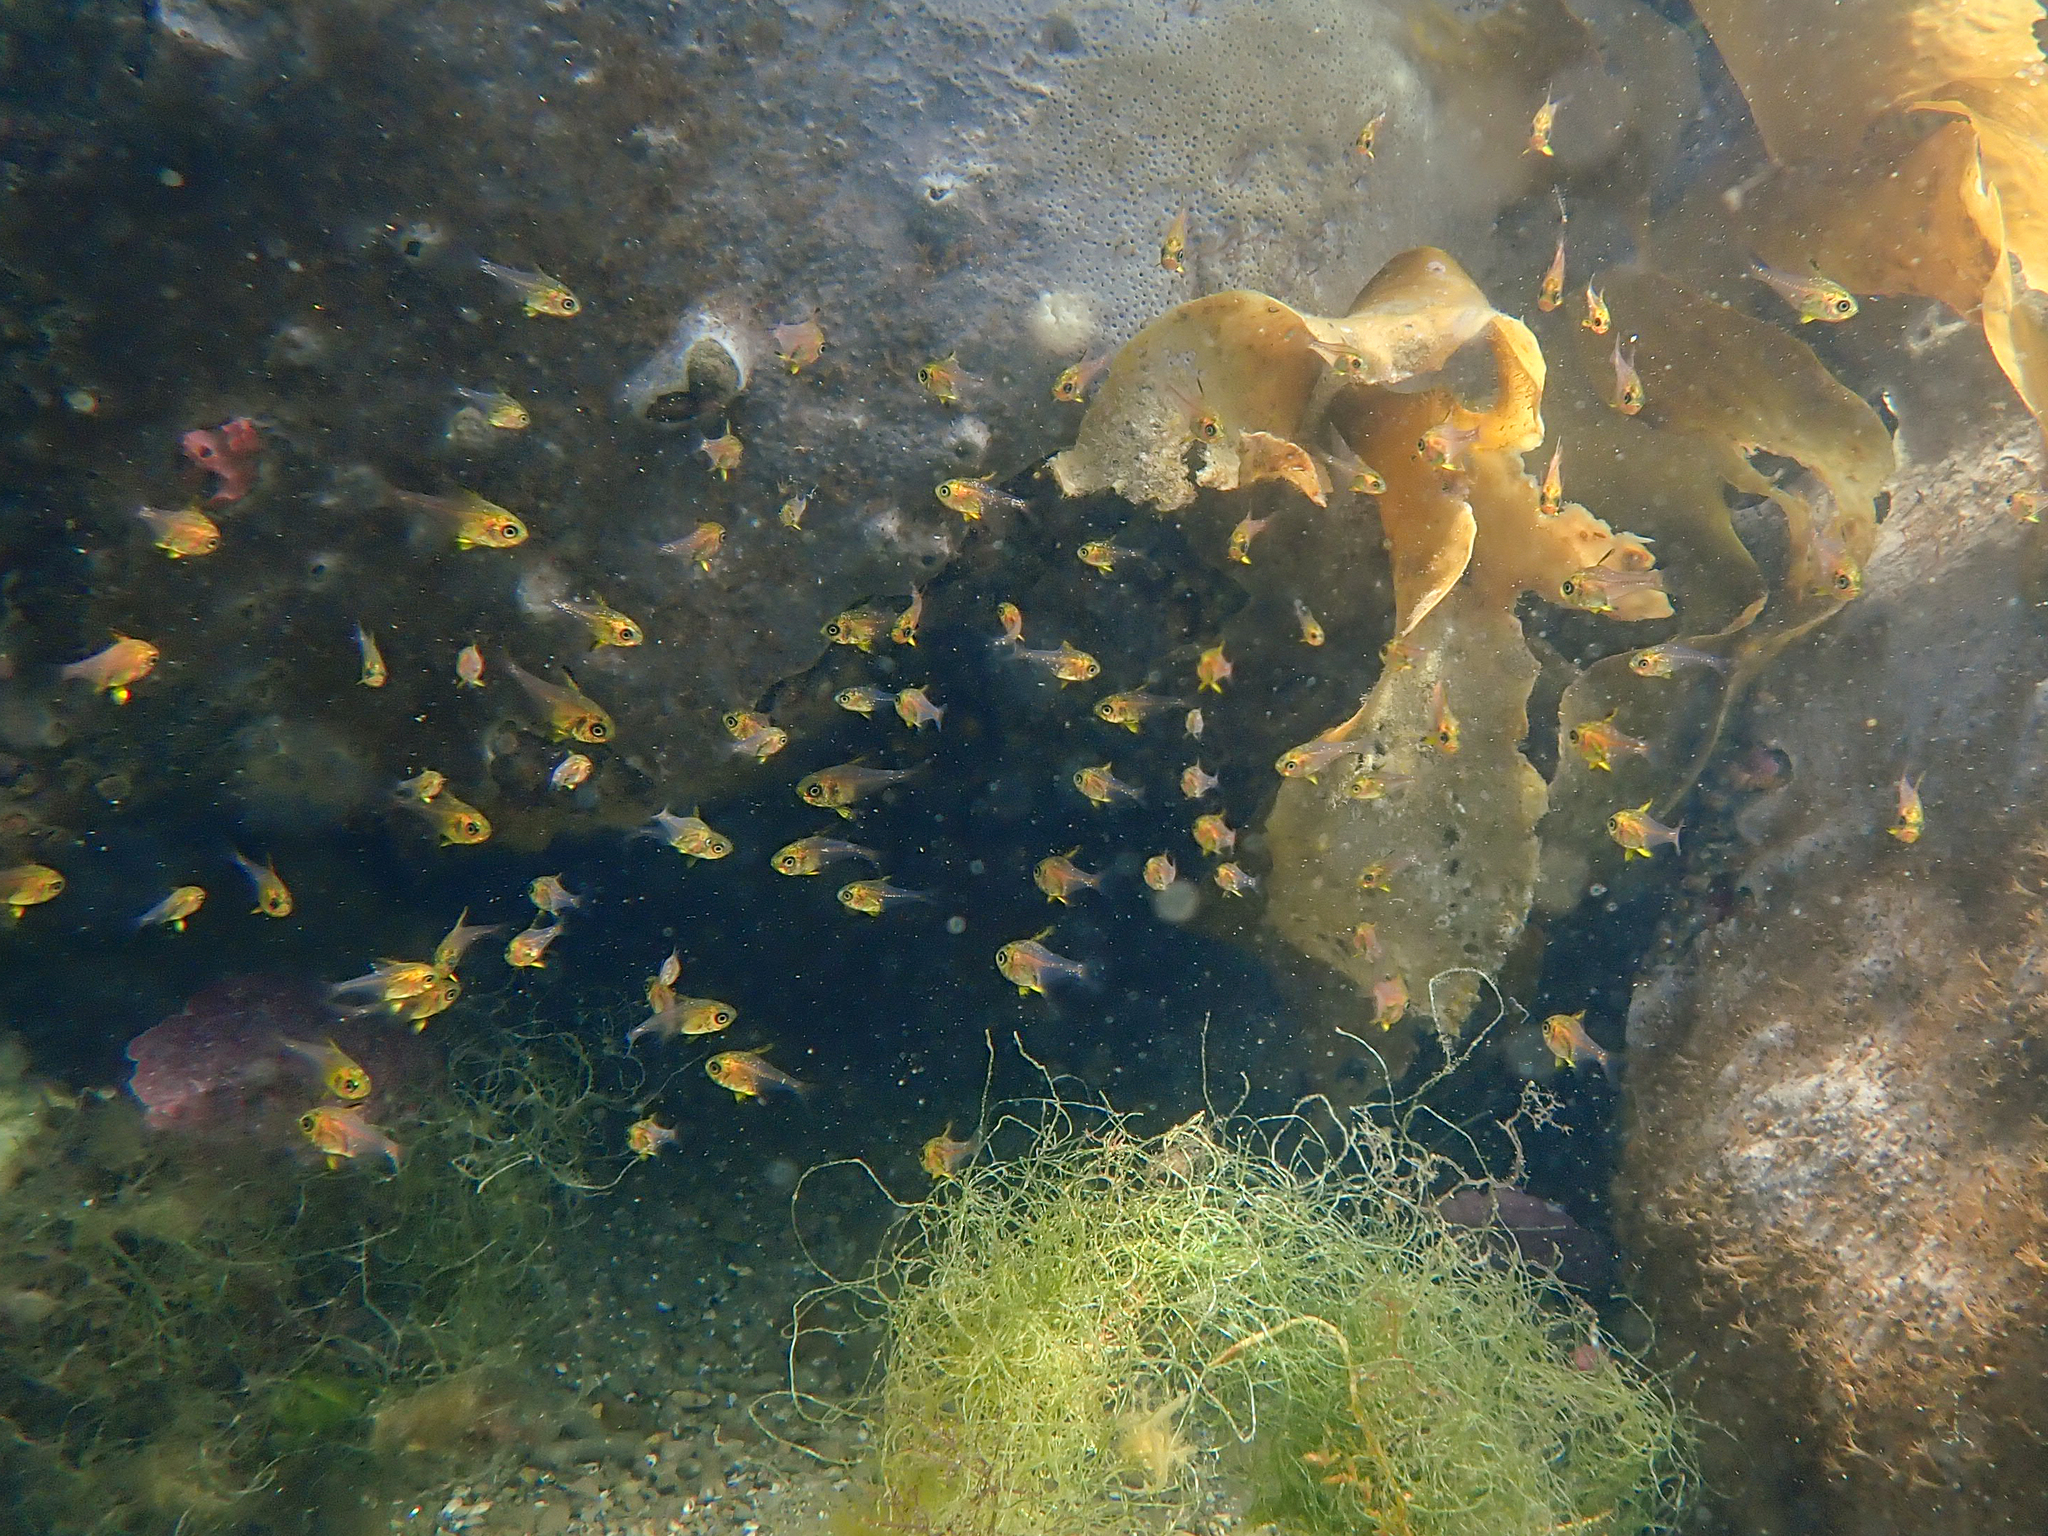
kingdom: Animalia
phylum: Chordata
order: Perciformes
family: Pempheridae
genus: Pempheris
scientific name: Pempheris multiradiata
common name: Big-scaled bullseye
